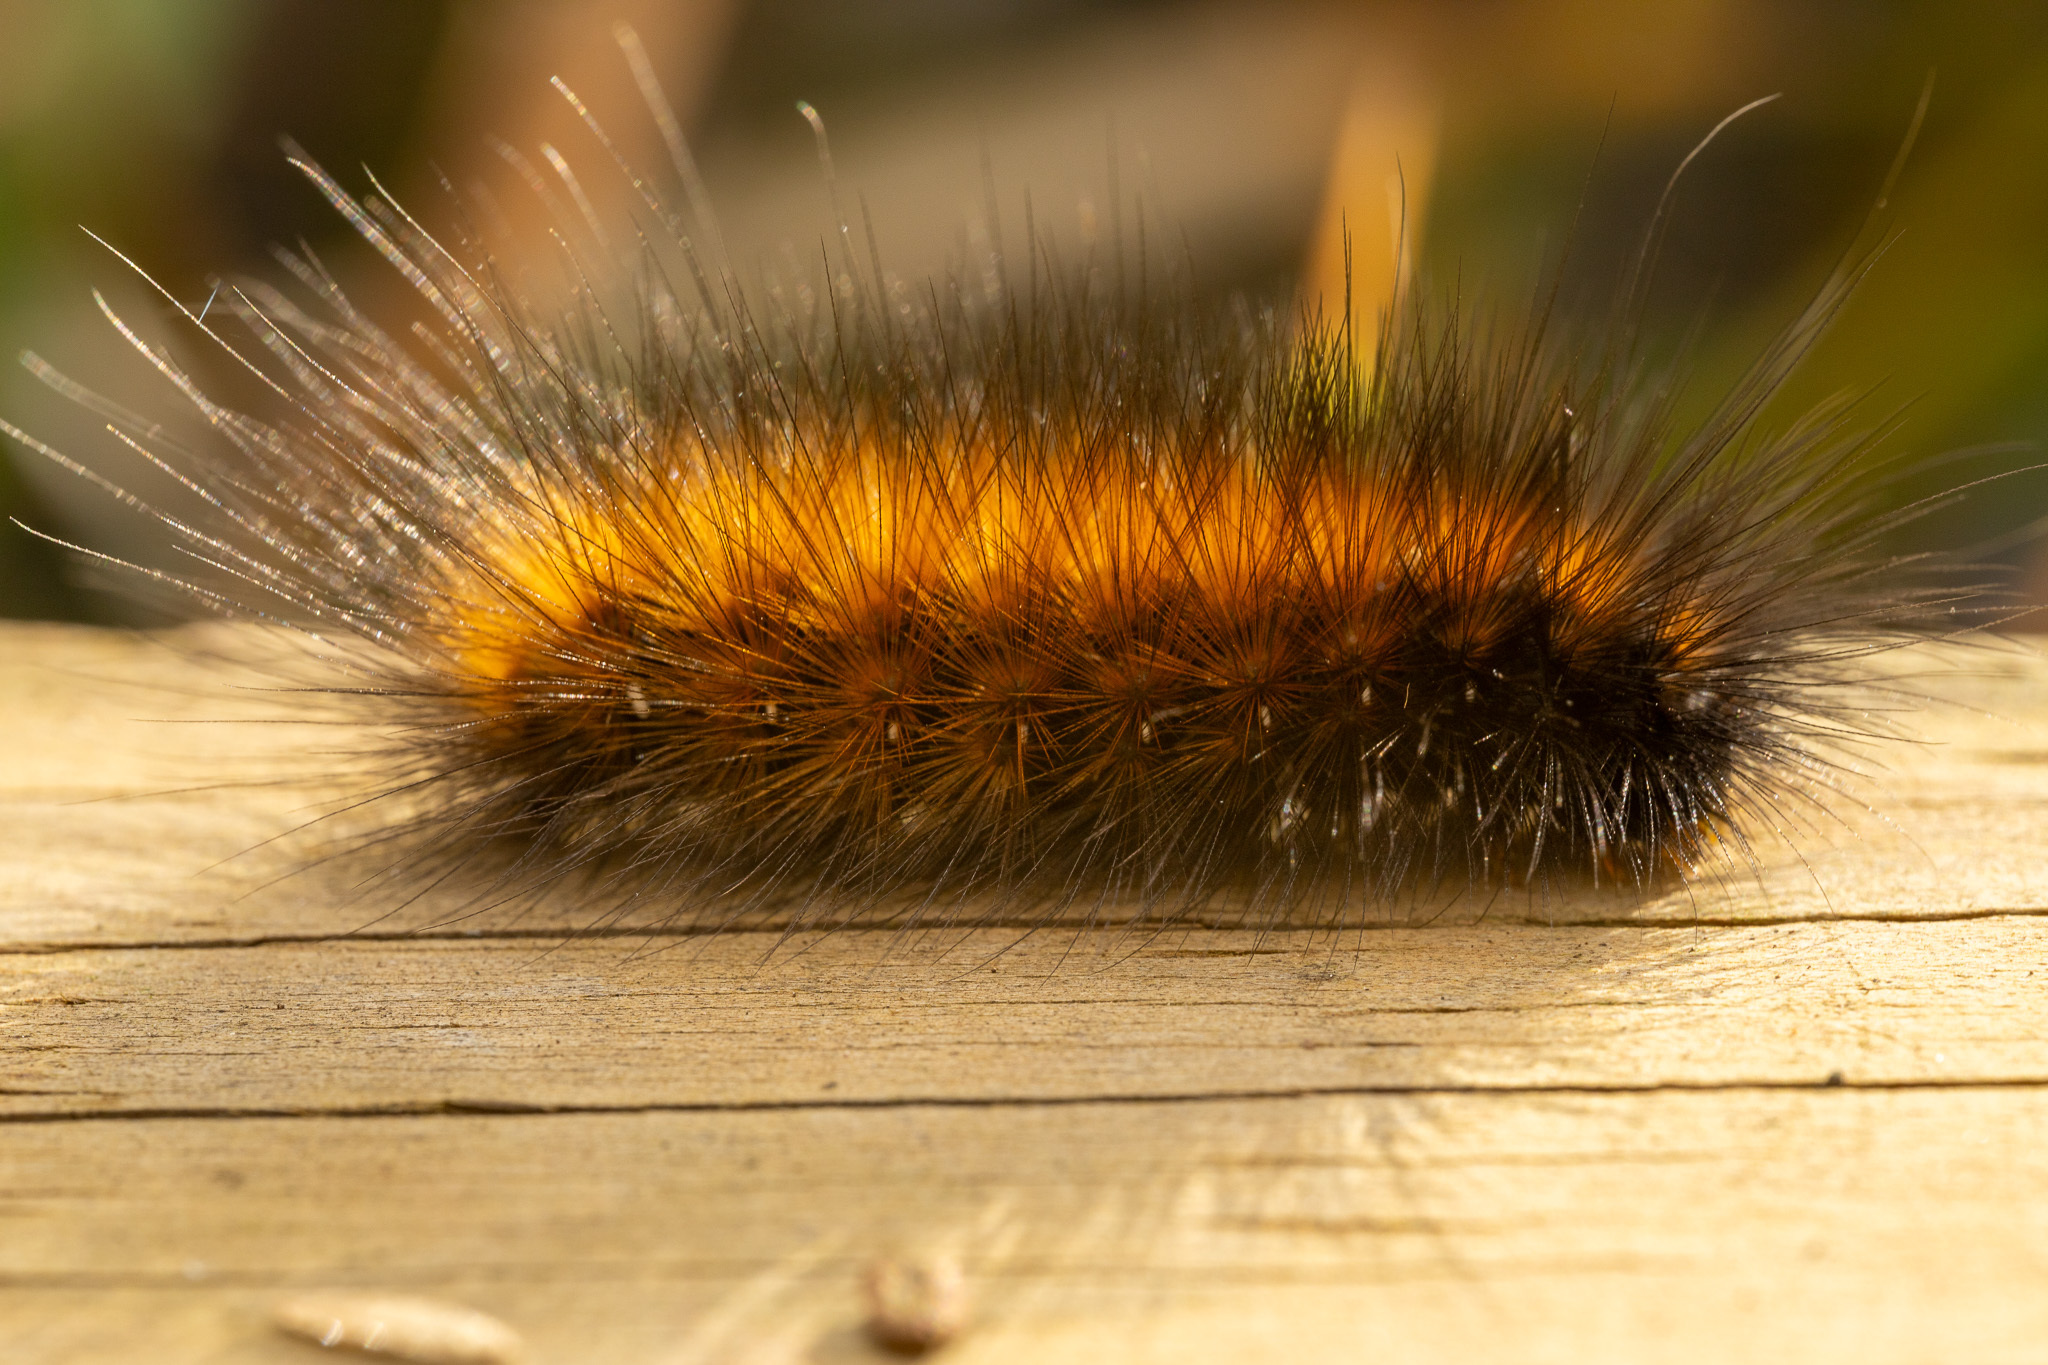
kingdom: Animalia
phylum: Arthropoda
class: Insecta
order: Lepidoptera
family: Erebidae
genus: Spilosoma
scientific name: Spilosoma virginica
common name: Virginia tiger moth
